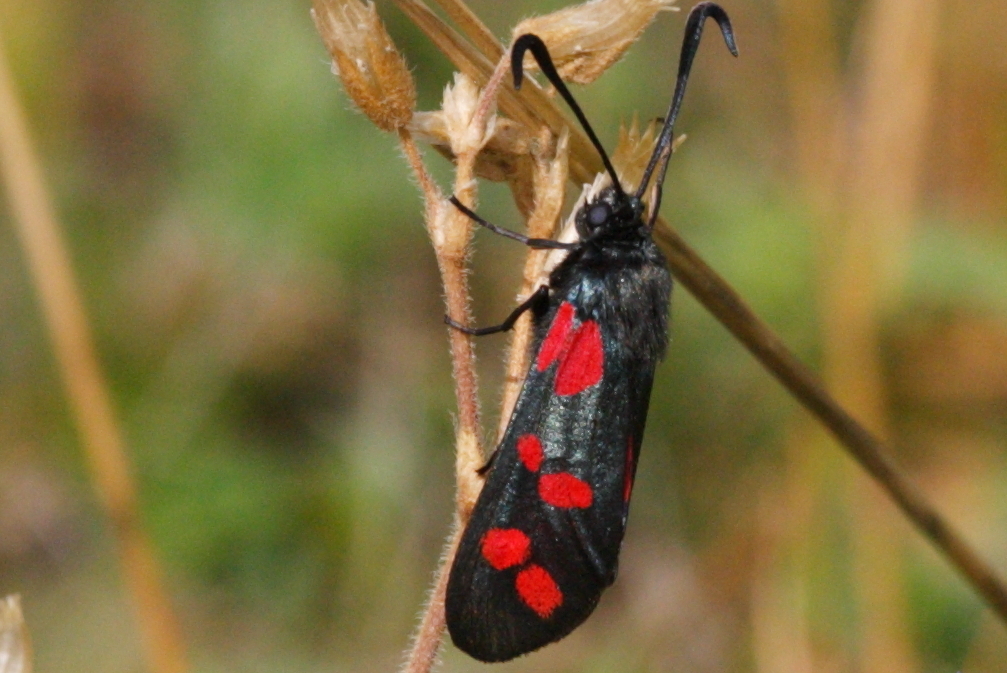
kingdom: Animalia
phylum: Arthropoda
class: Insecta
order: Lepidoptera
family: Zygaenidae
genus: Zygaena
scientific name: Zygaena filipendulae
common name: Six-spot burnet
